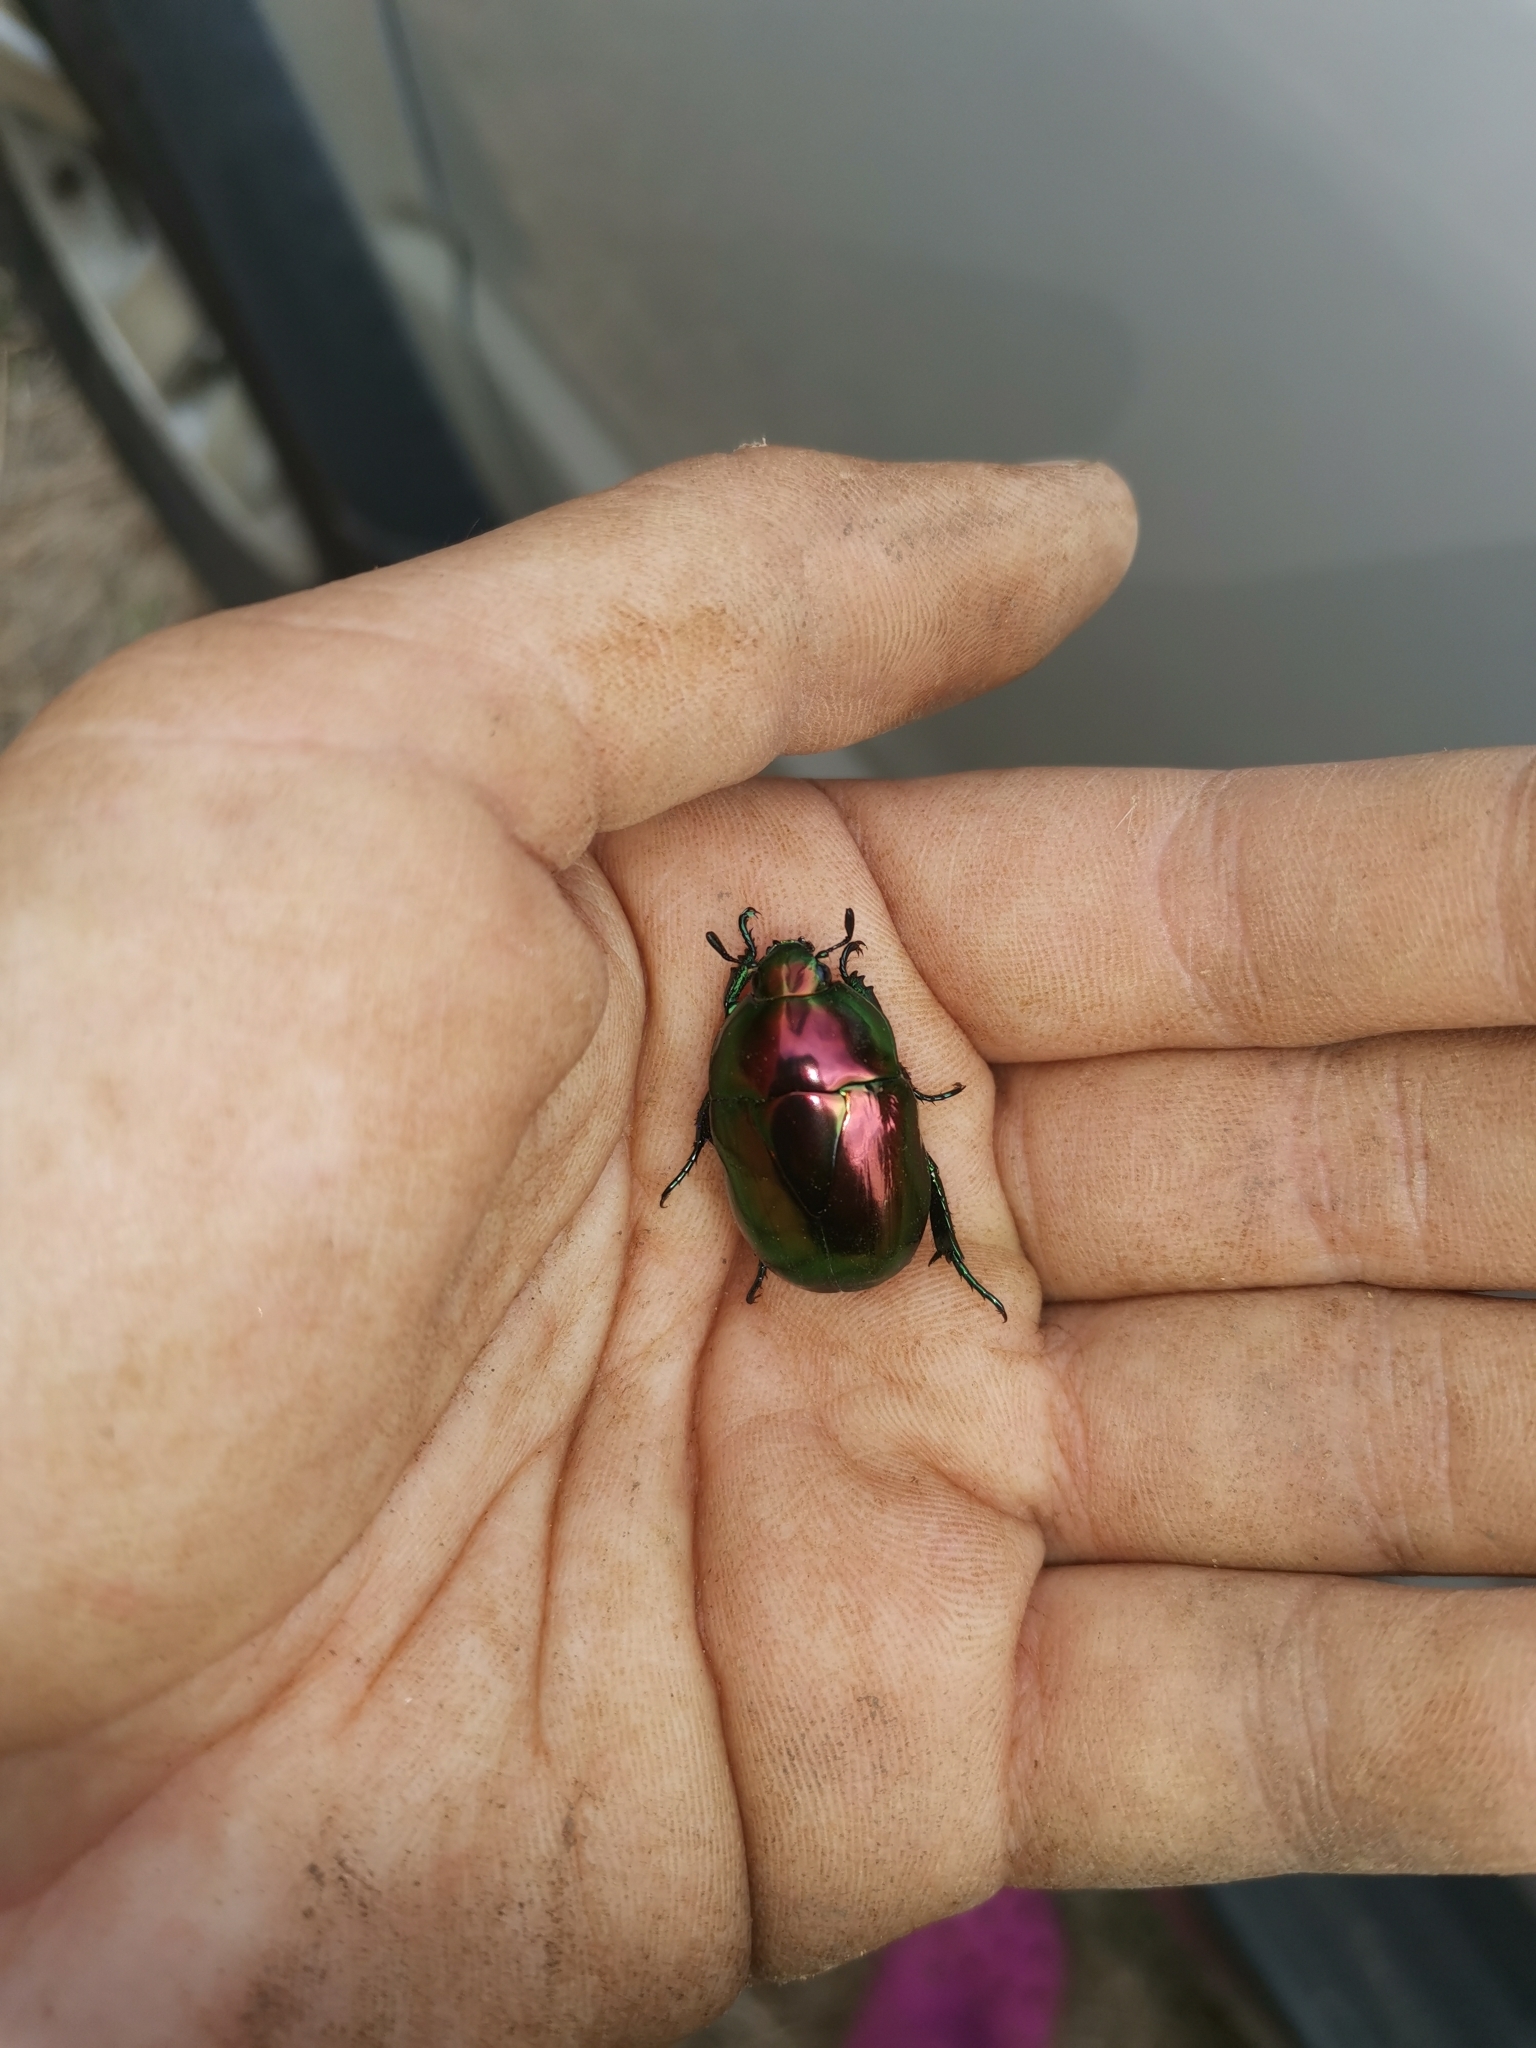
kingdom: Animalia
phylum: Arthropoda
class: Insecta
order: Coleoptera
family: Scarabaeidae
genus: Macraspis
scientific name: Macraspis chrysis
